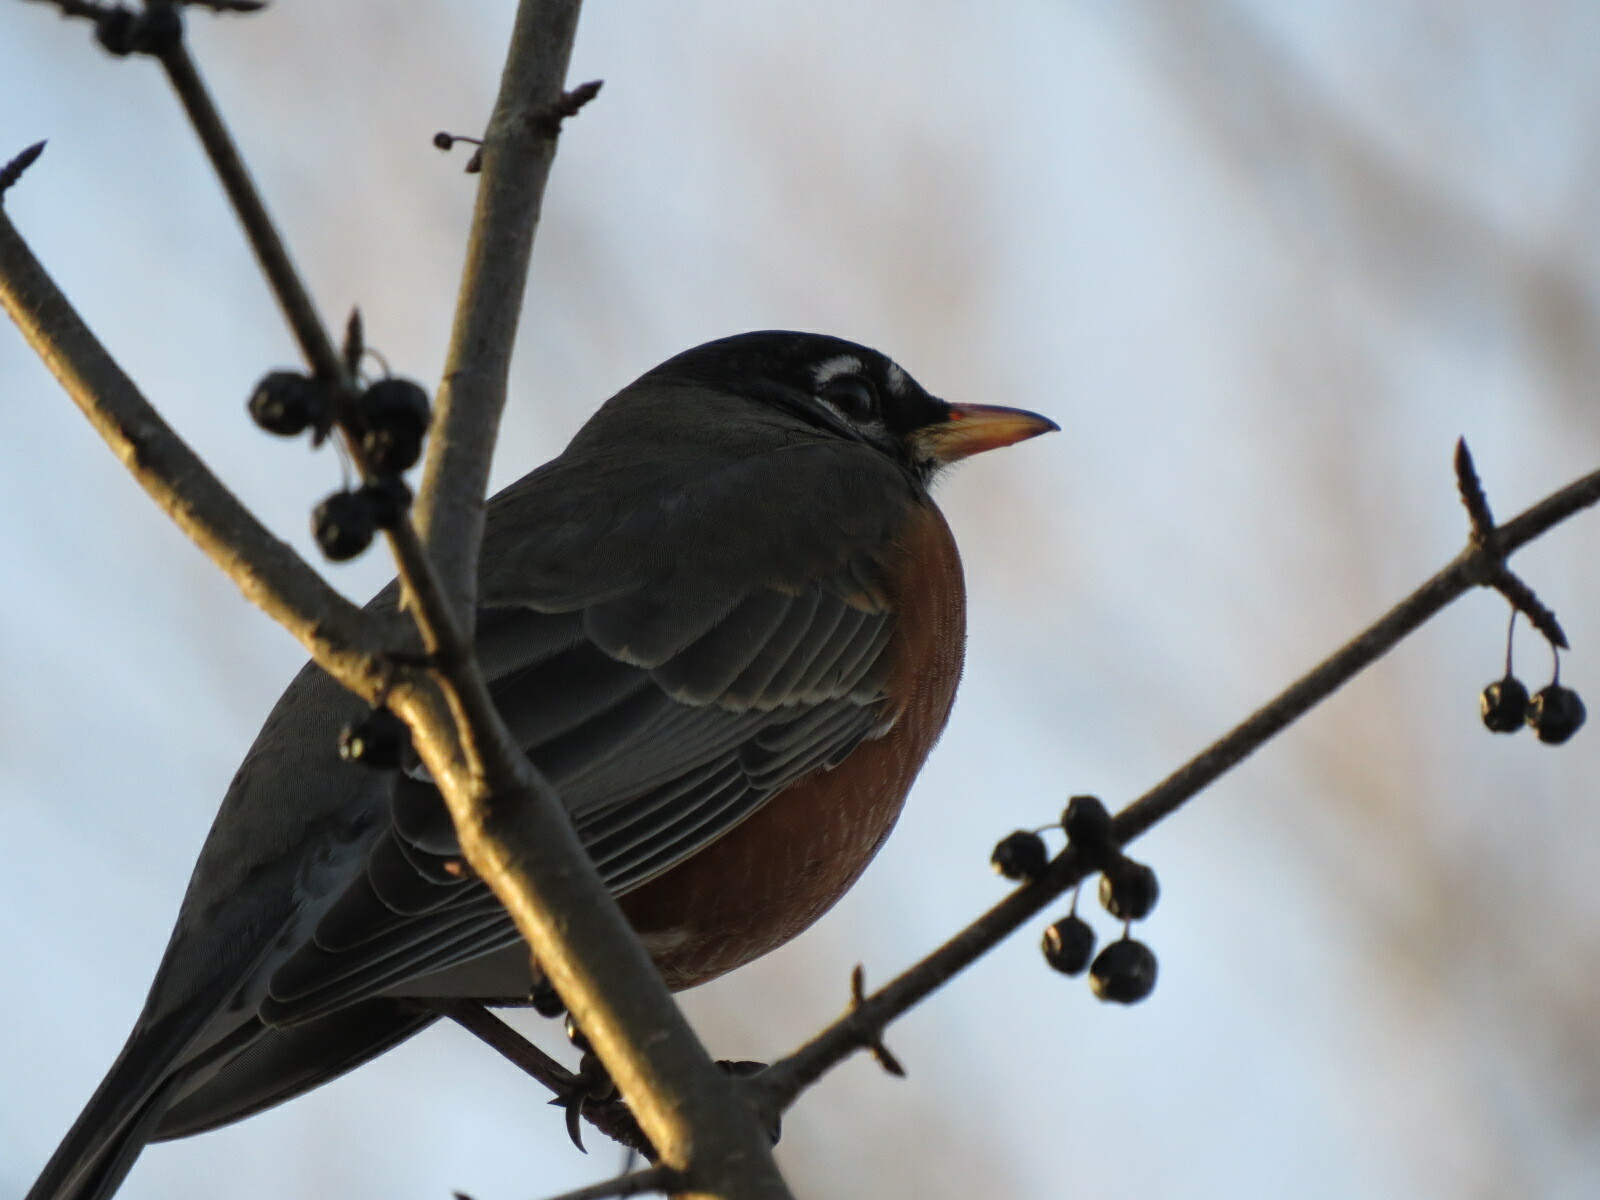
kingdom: Animalia
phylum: Chordata
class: Aves
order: Passeriformes
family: Turdidae
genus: Turdus
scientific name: Turdus migratorius
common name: American robin
